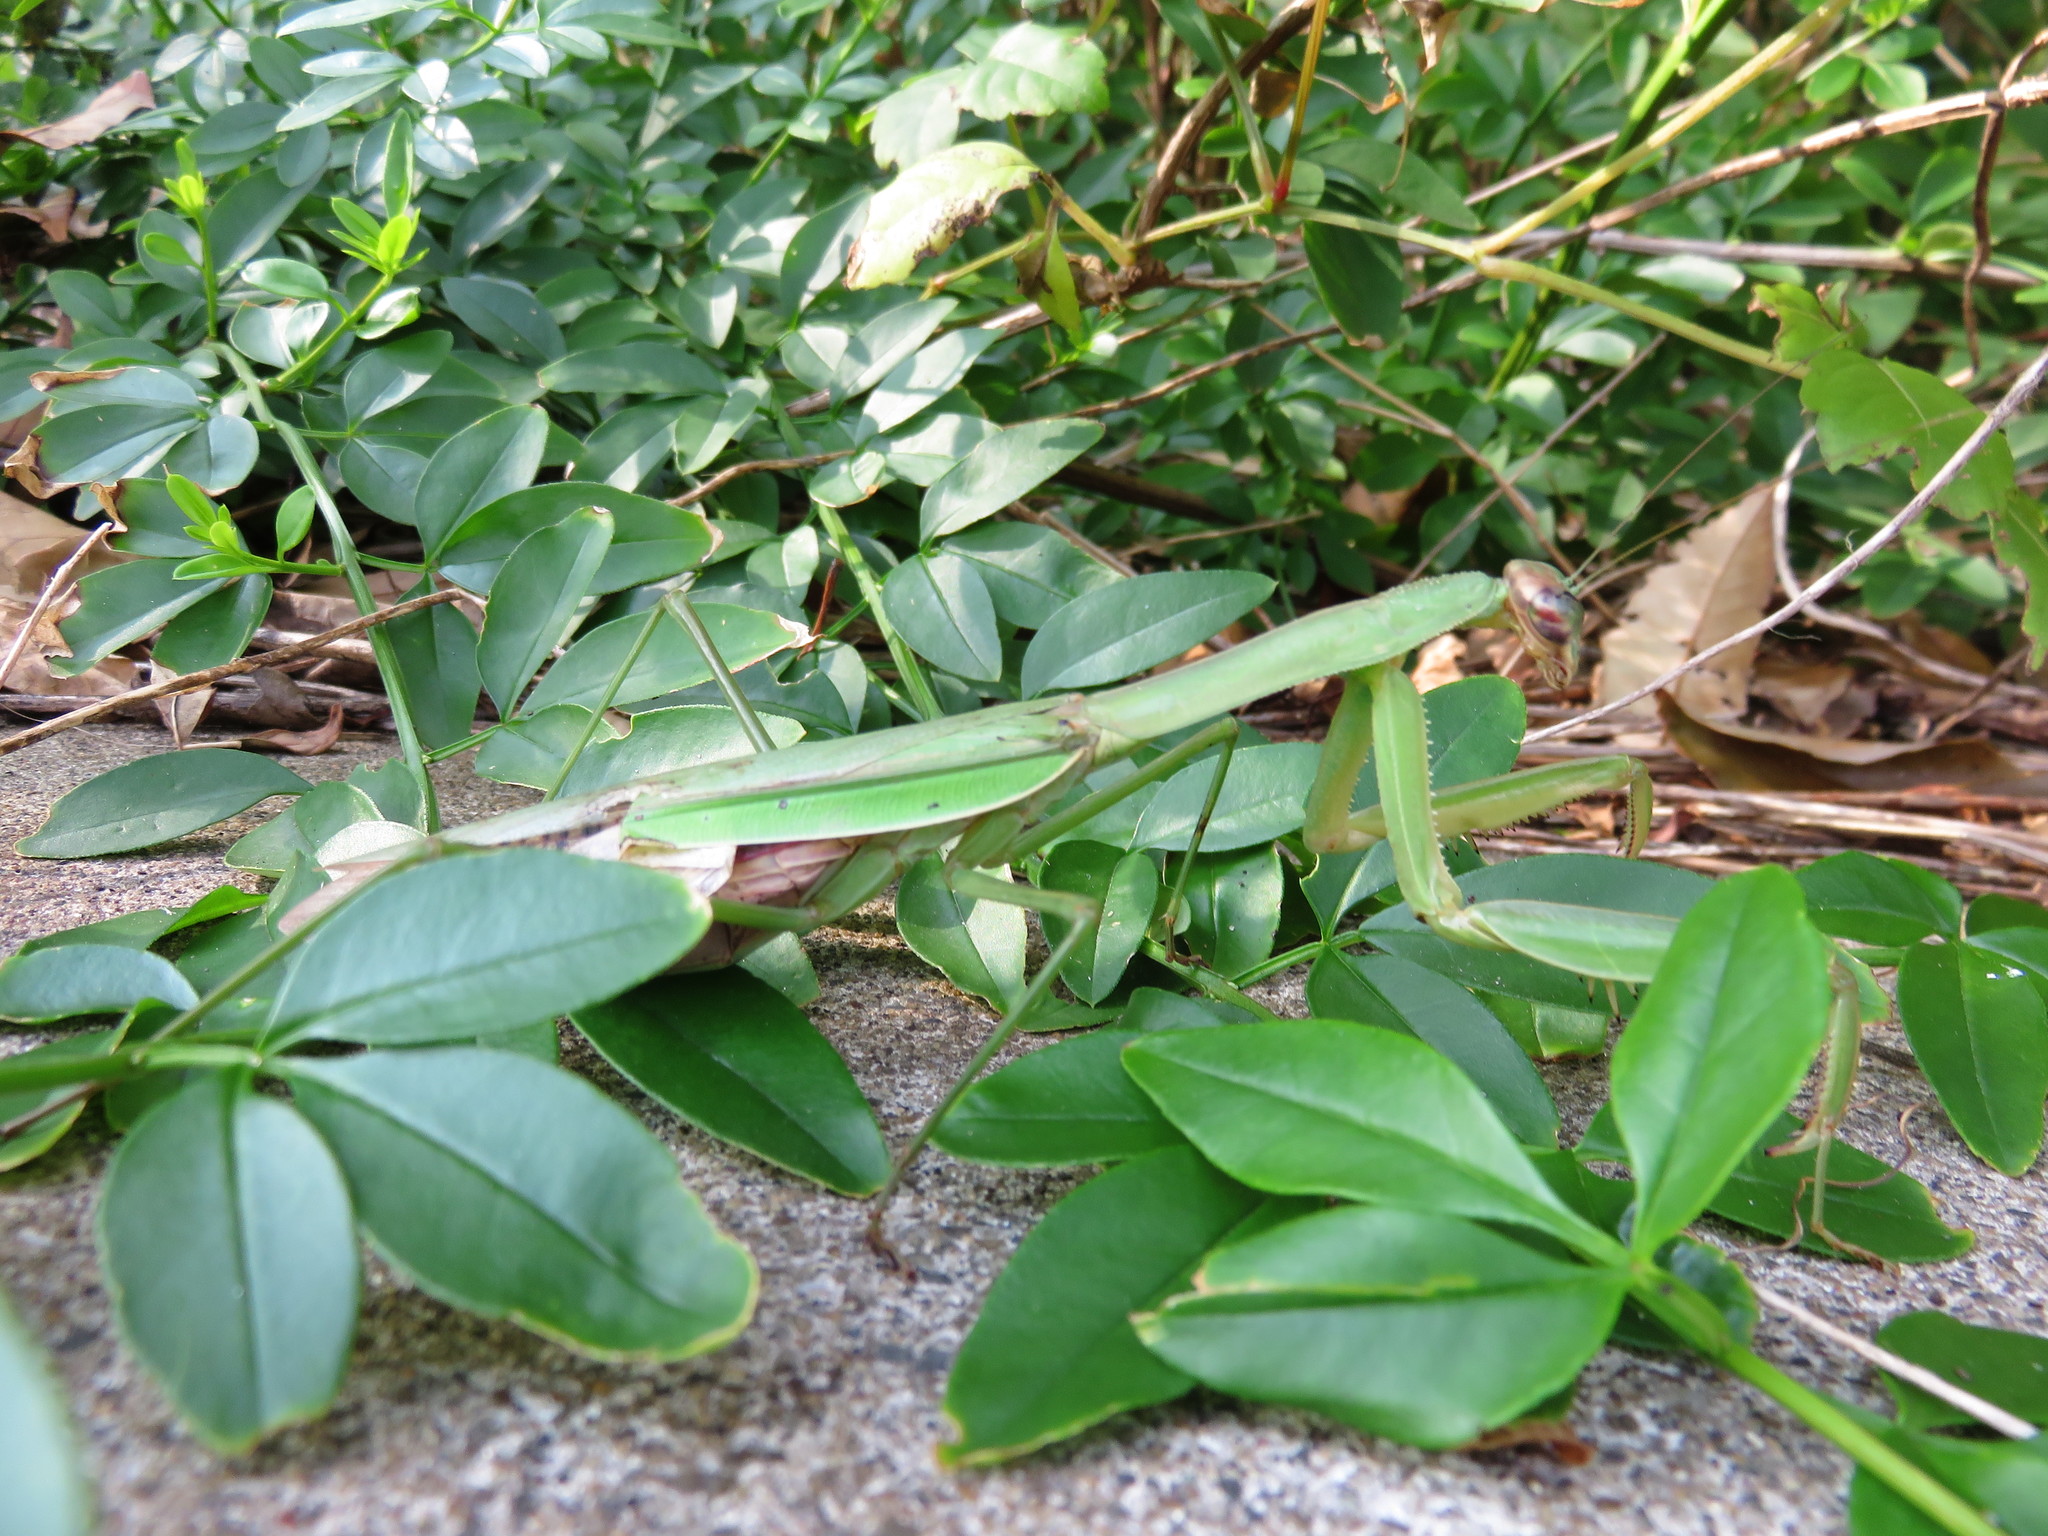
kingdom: Animalia
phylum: Arthropoda
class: Insecta
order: Mantodea
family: Mantidae
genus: Tenodera
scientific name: Tenodera sinensis
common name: Chinese mantis
